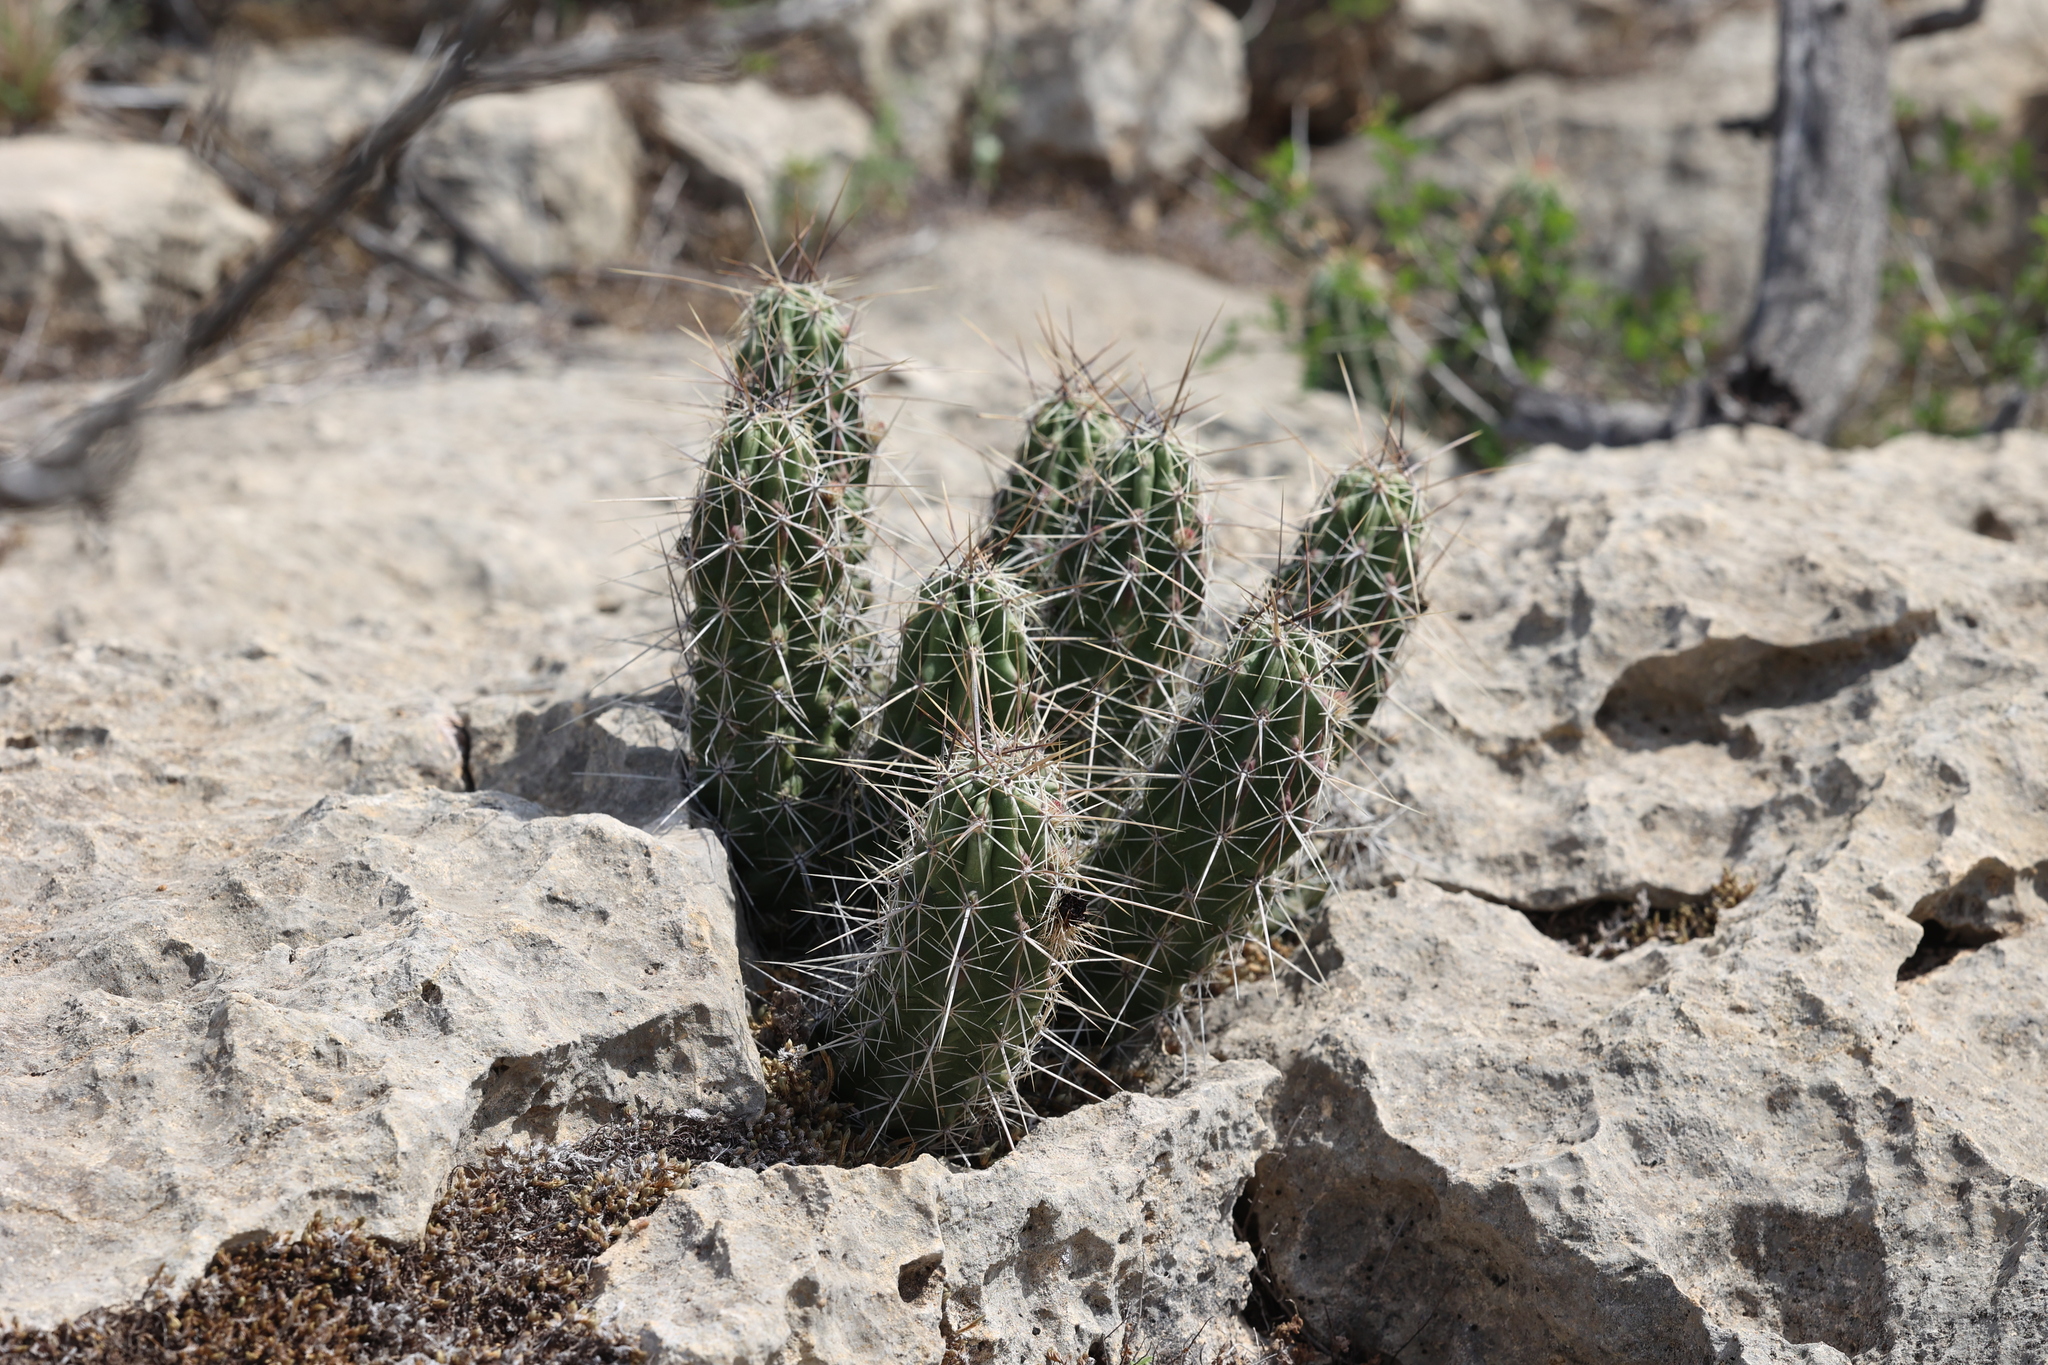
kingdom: Plantae
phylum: Tracheophyta
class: Magnoliopsida
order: Caryophyllales
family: Cactaceae
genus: Echinocereus
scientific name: Echinocereus enneacanthus
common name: Pitaya
